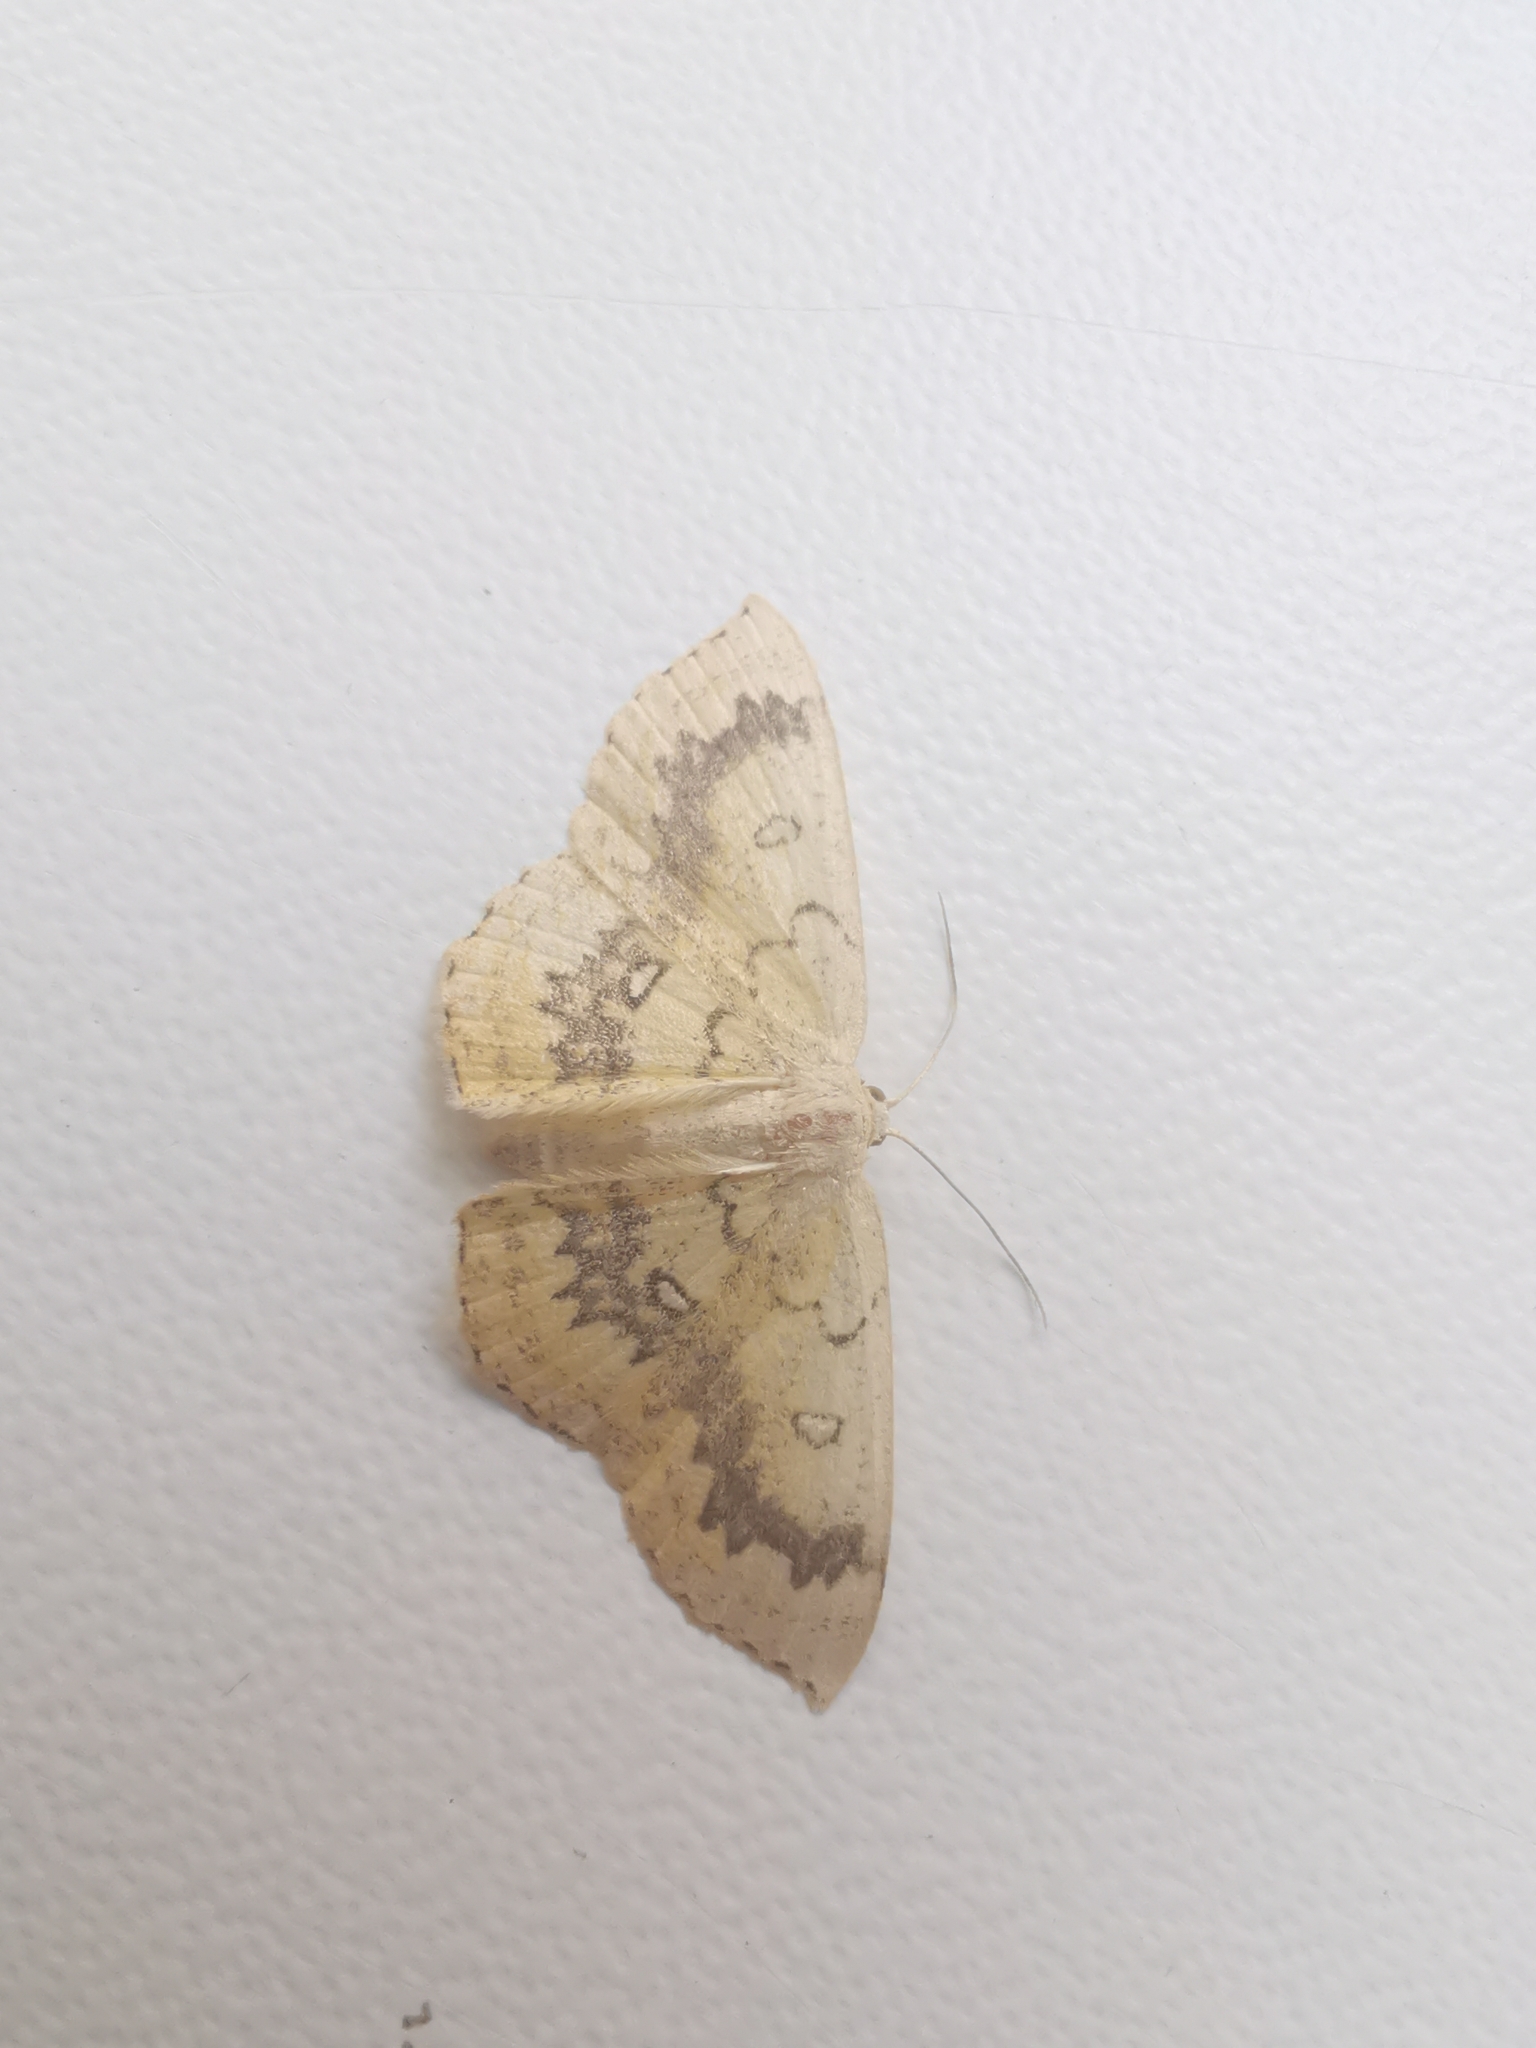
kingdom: Animalia
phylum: Arthropoda
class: Insecta
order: Lepidoptera
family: Geometridae
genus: Cyclophora
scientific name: Cyclophora annularia
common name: Mocha
